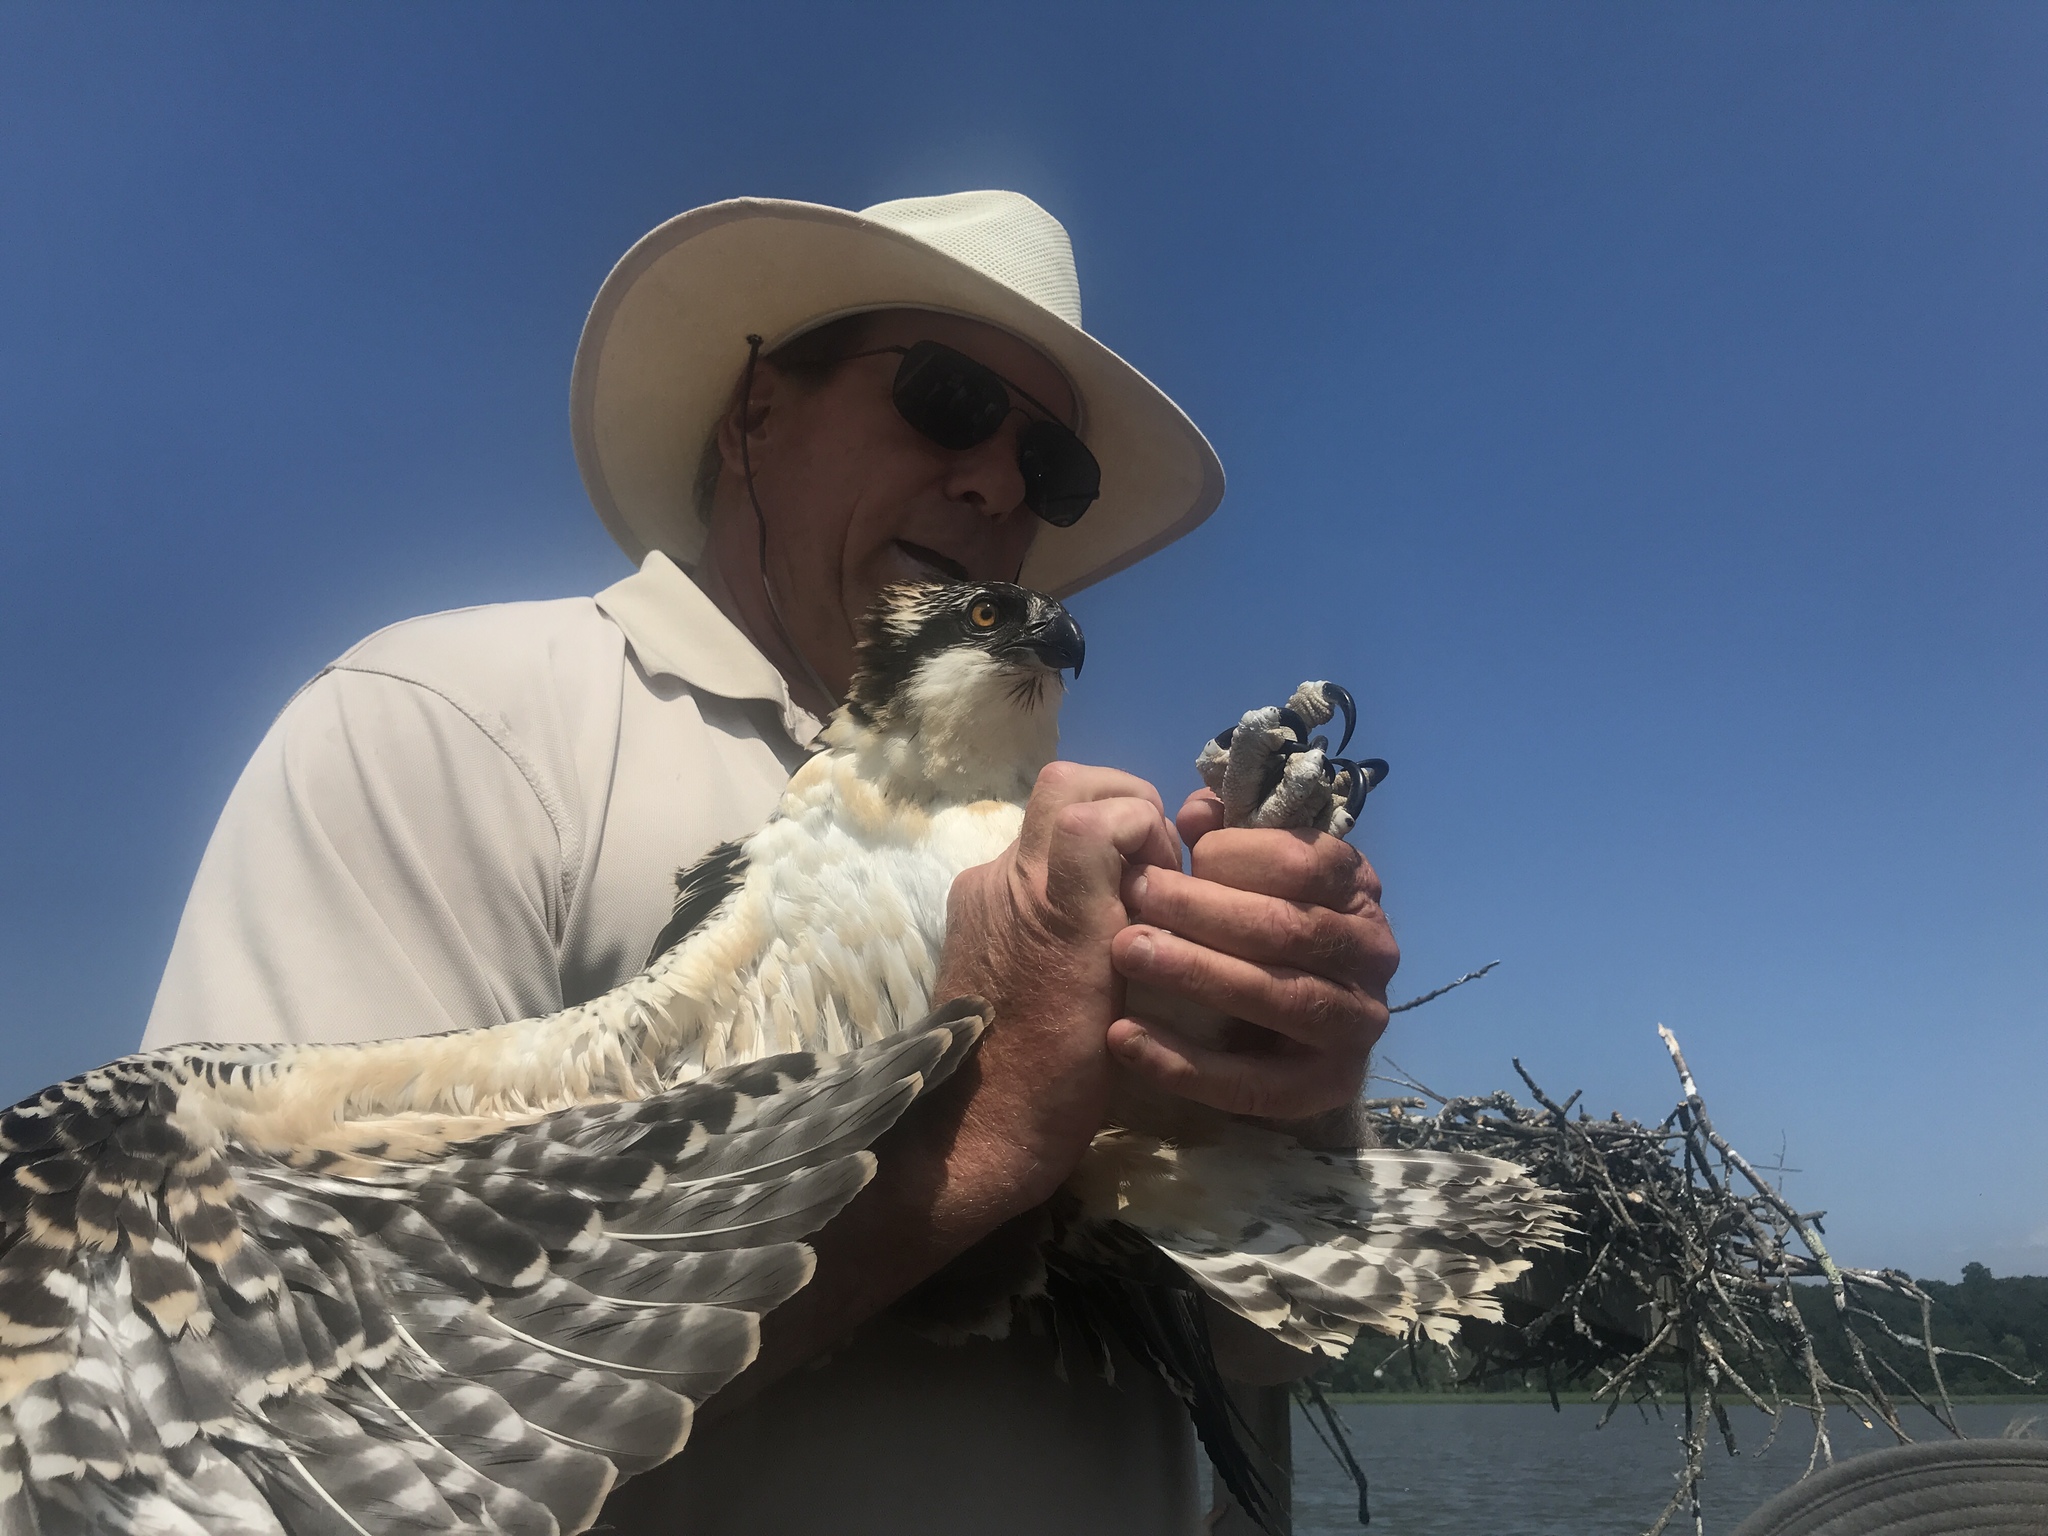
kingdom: Animalia
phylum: Chordata
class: Aves
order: Accipitriformes
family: Pandionidae
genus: Pandion
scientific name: Pandion haliaetus
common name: Osprey
